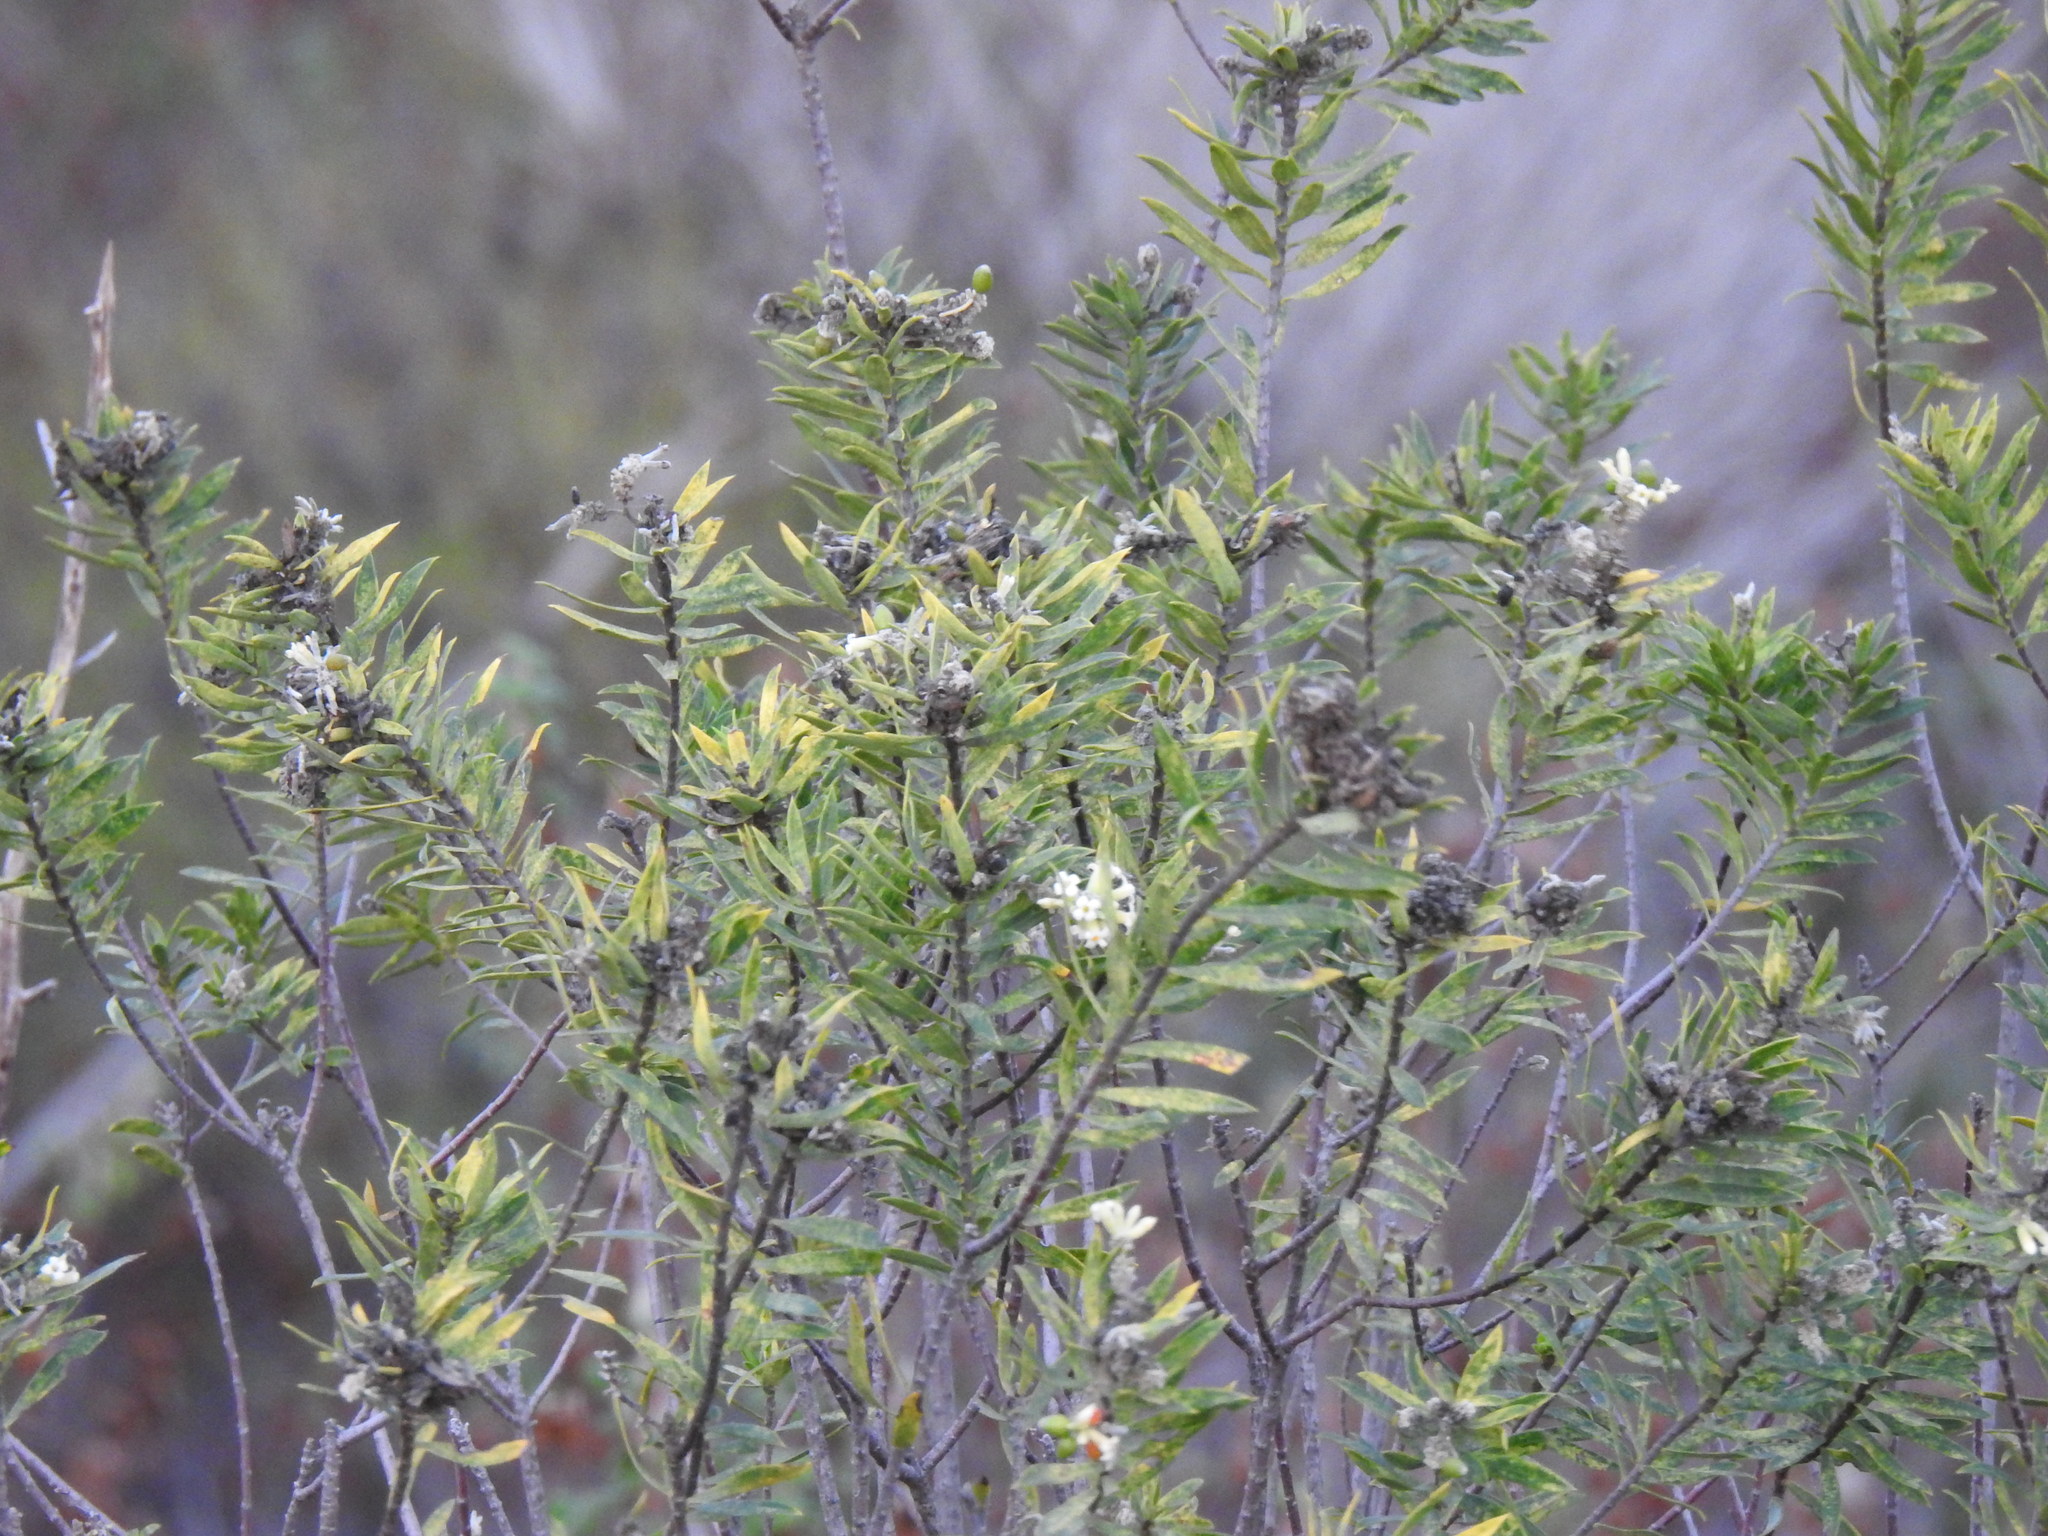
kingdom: Plantae
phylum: Tracheophyta
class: Magnoliopsida
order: Malvales
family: Thymelaeaceae
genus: Daphne
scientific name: Daphne gnidium
